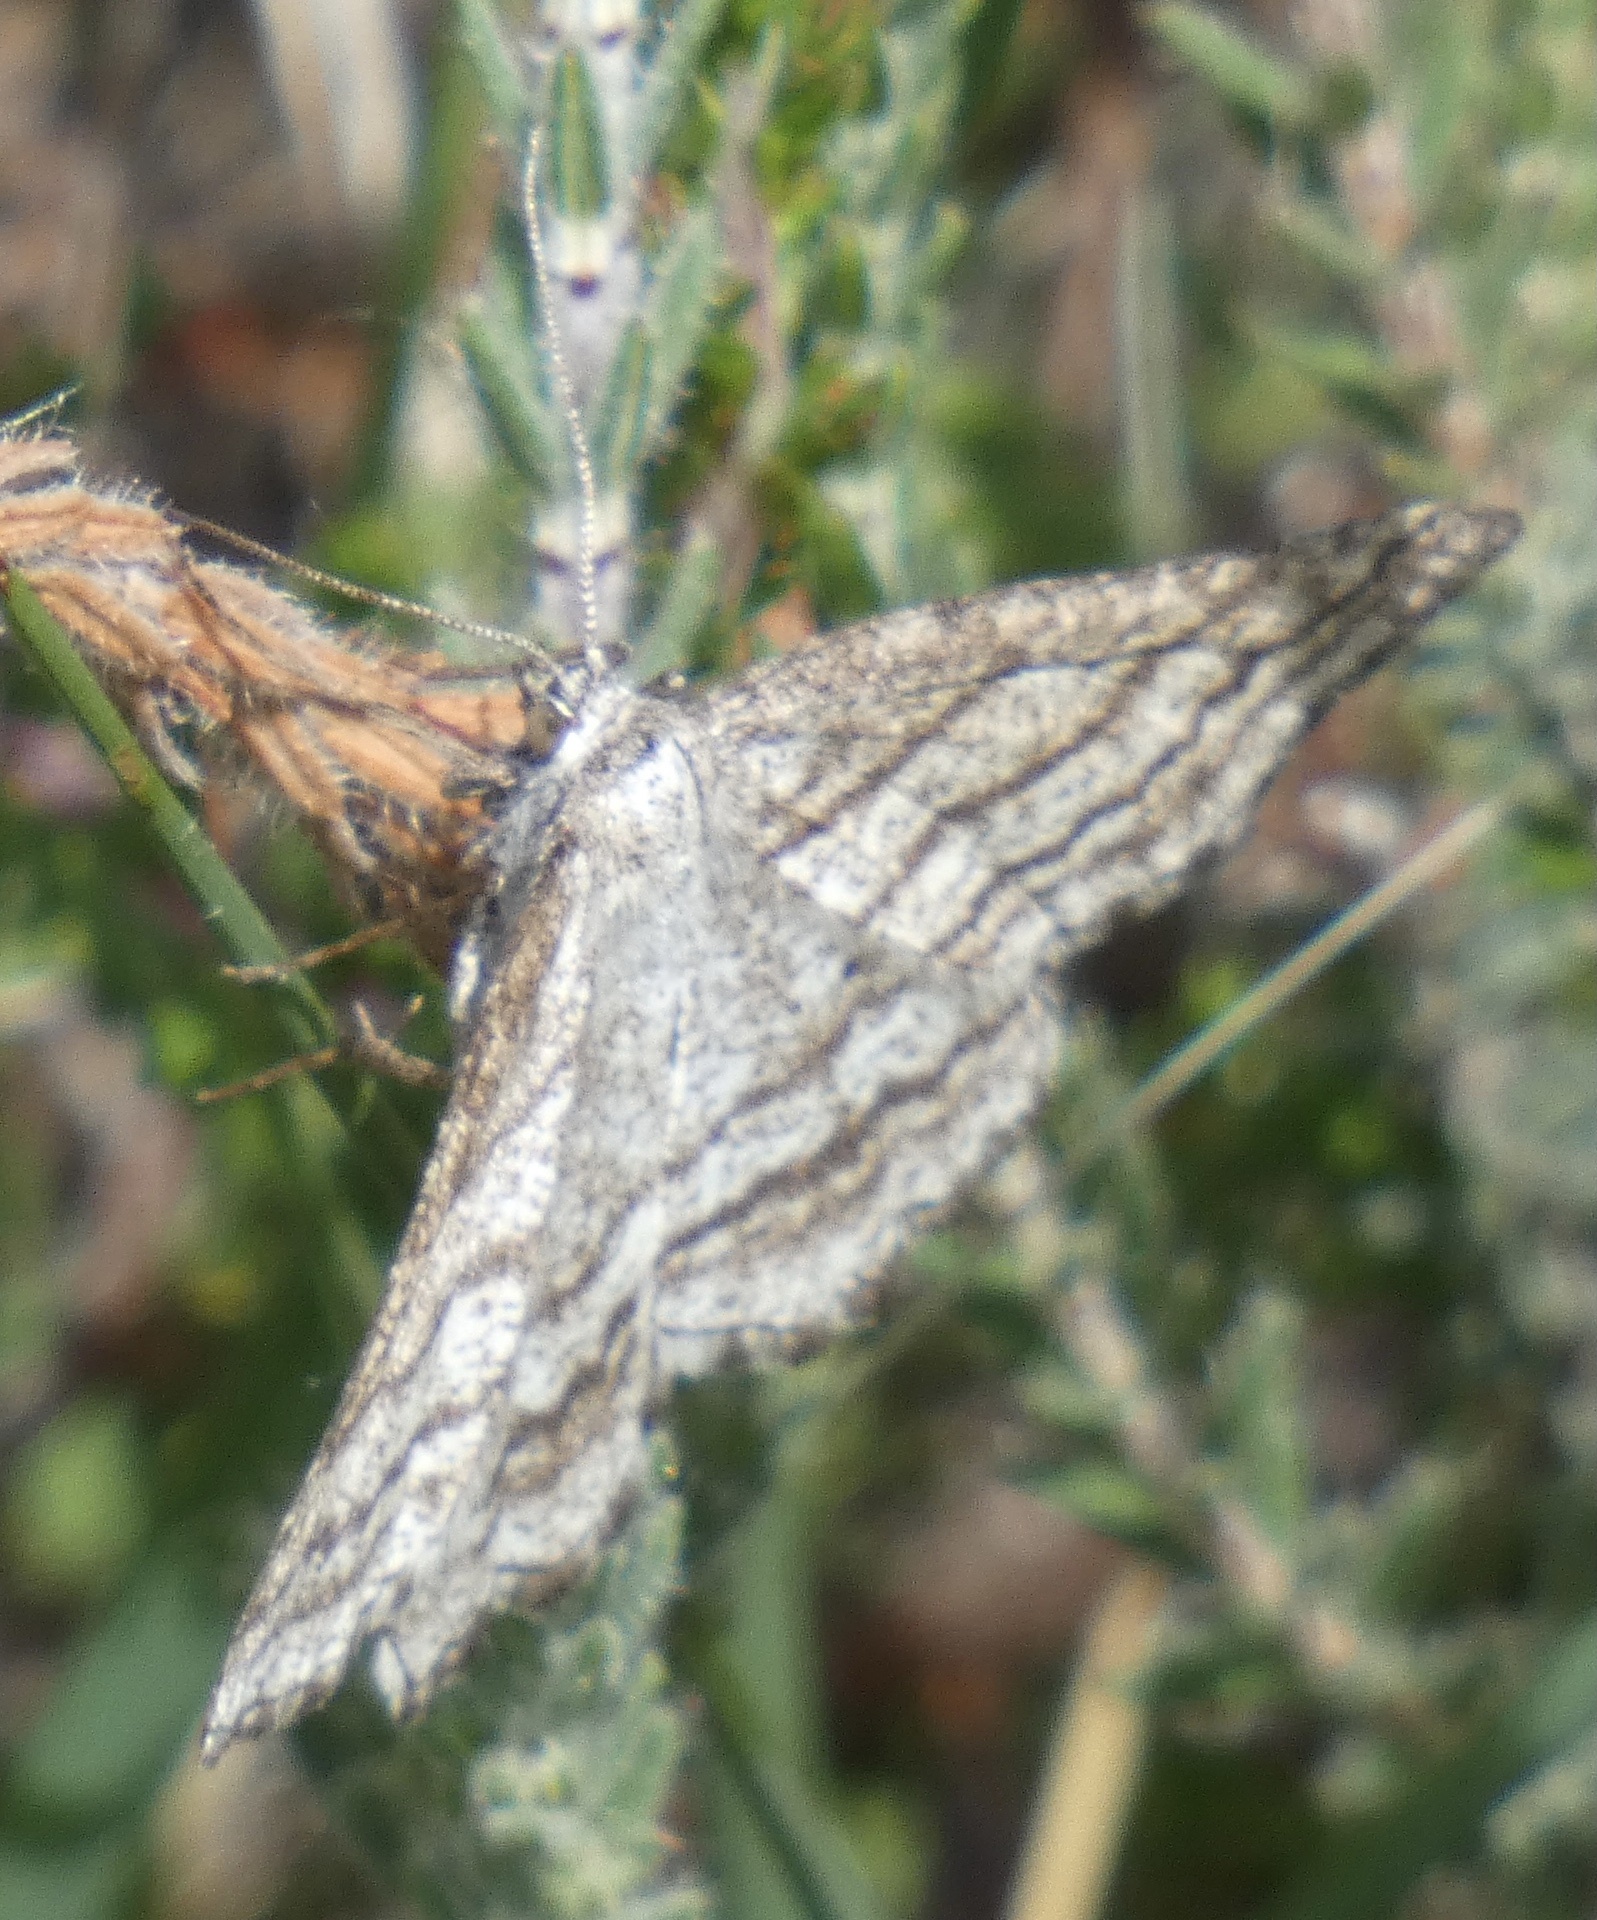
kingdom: Animalia
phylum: Arthropoda
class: Insecta
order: Lepidoptera
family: Geometridae
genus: Perconia
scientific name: Perconia strigillaria
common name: Grass wave
